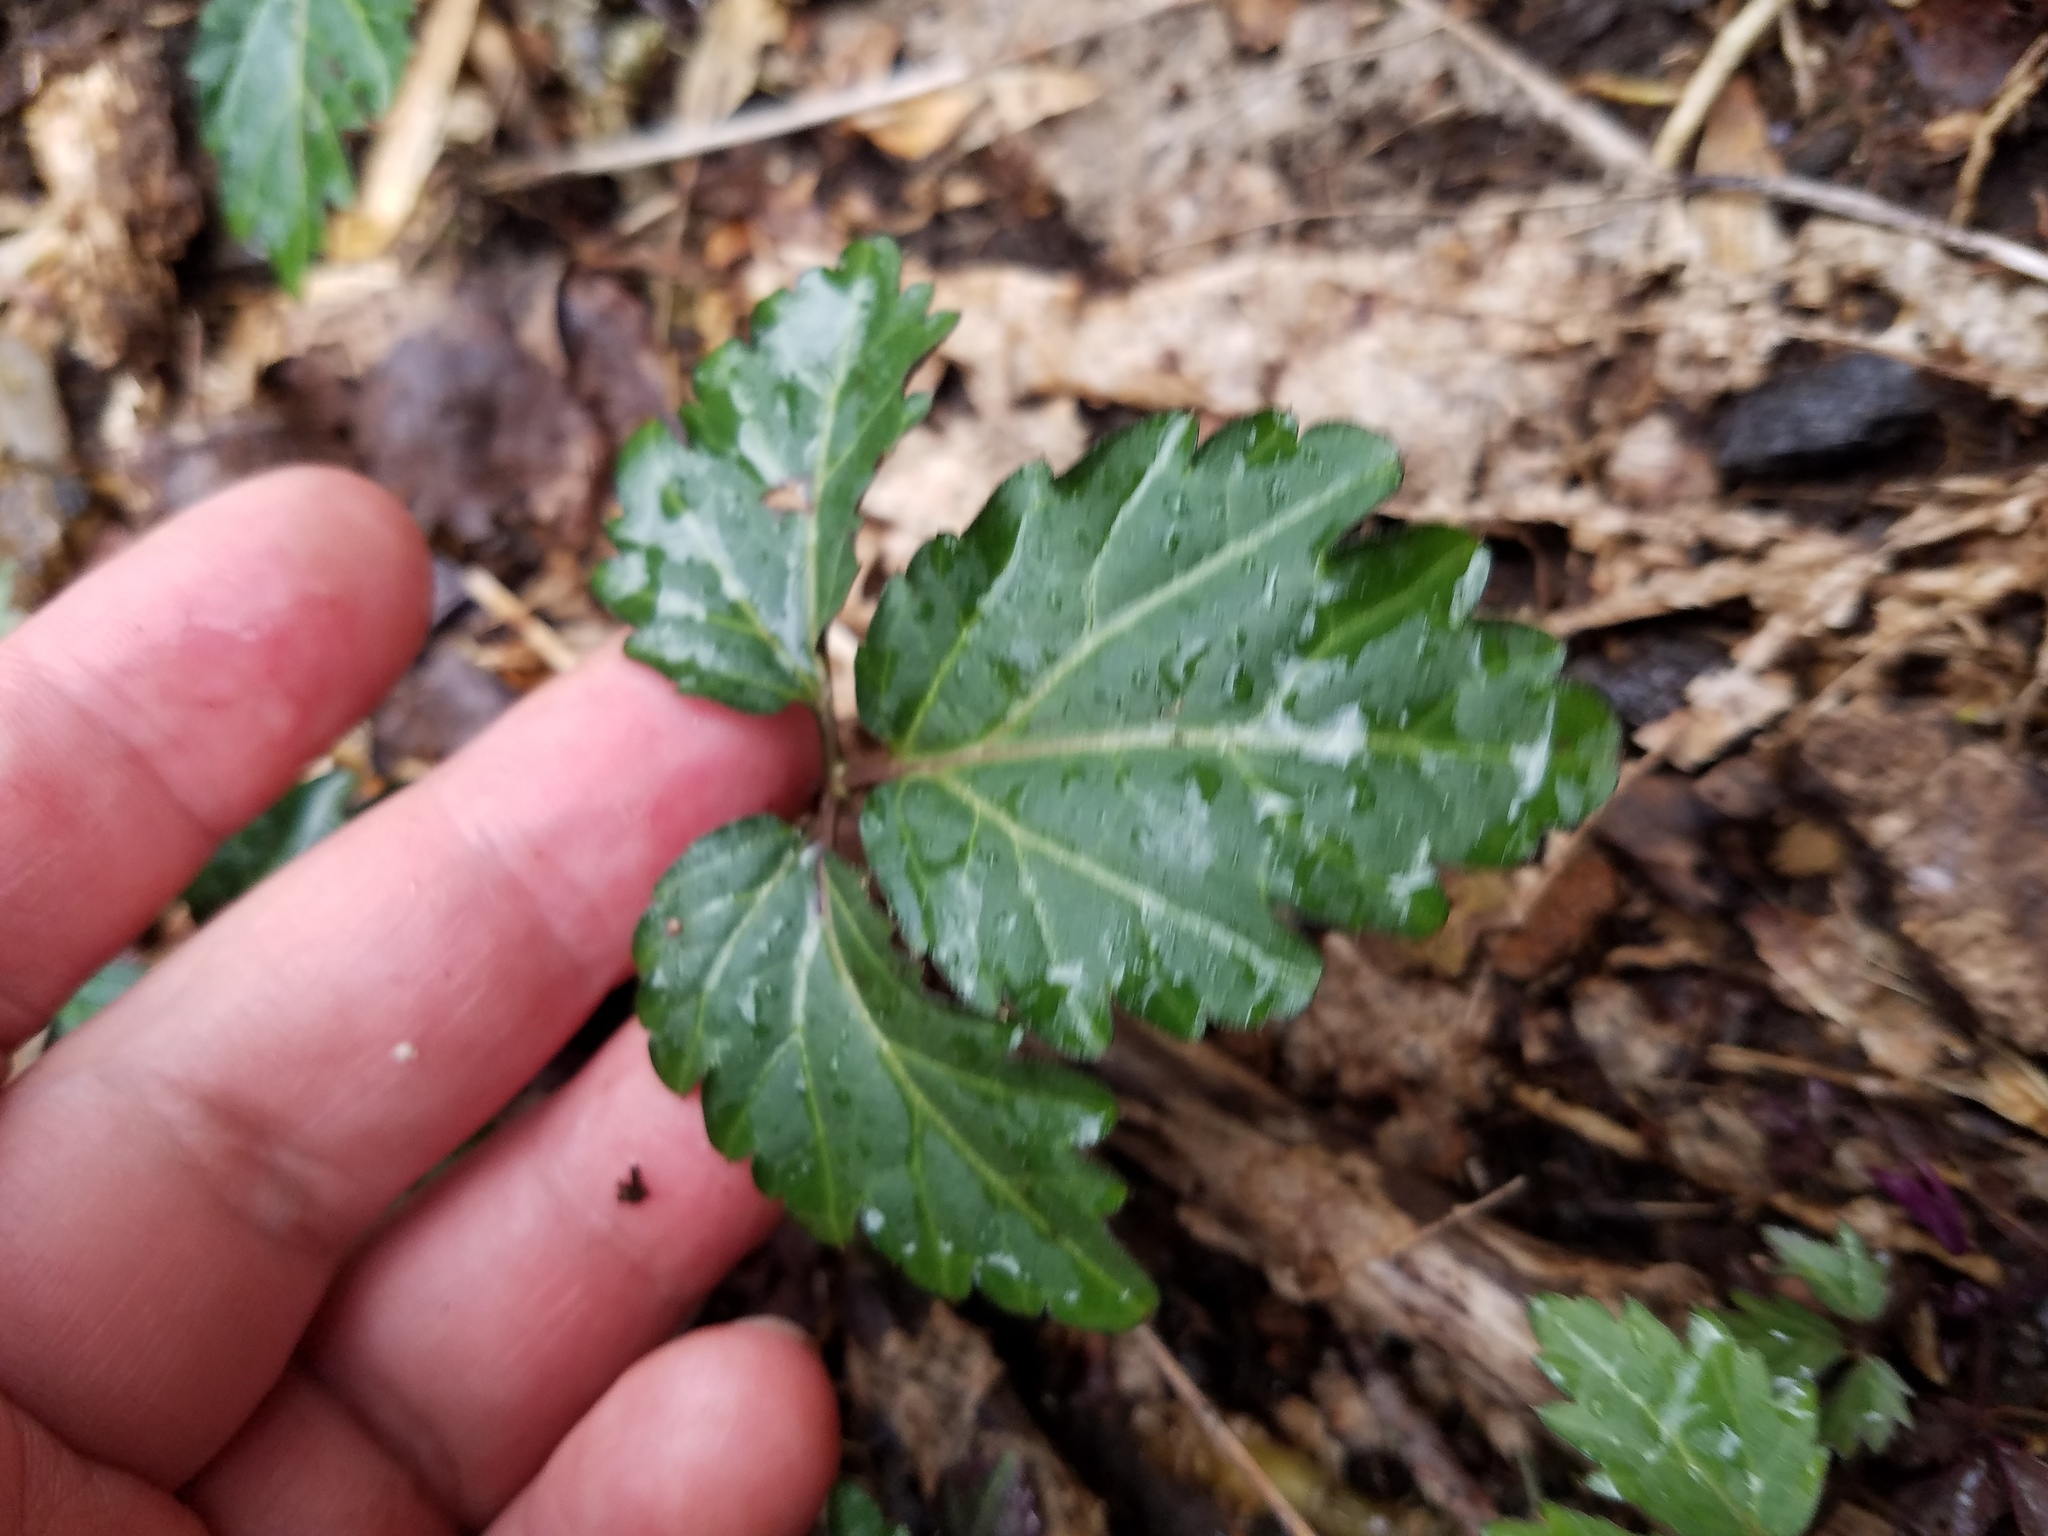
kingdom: Plantae
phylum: Tracheophyta
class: Magnoliopsida
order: Brassicales
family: Brassicaceae
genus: Cardamine
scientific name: Cardamine diphylla
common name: Broad-leaved toothwort
